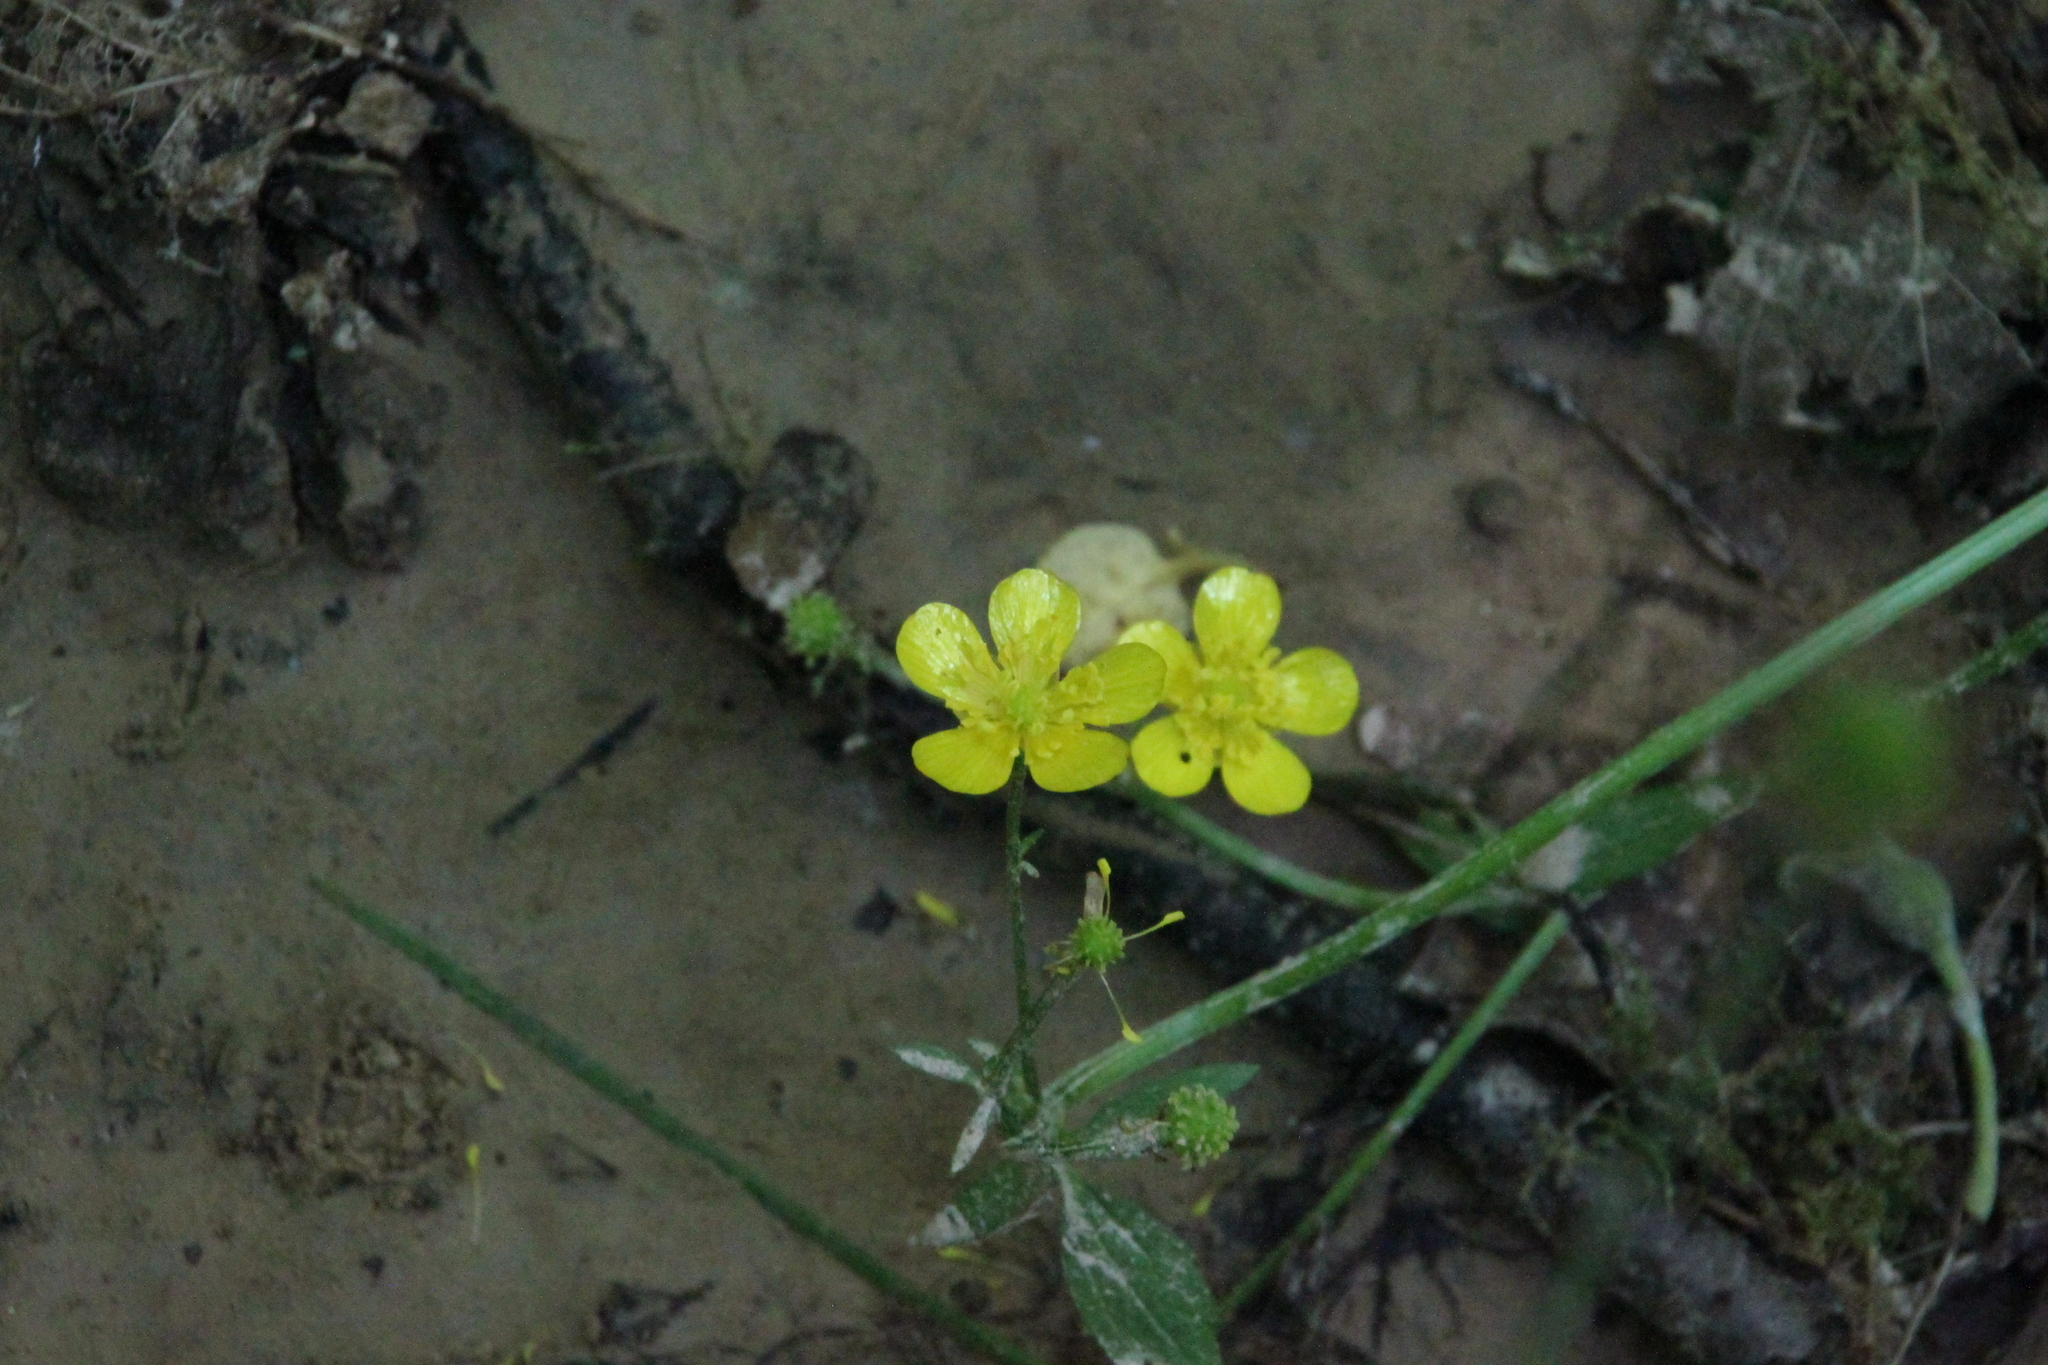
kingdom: Plantae
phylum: Tracheophyta
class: Magnoliopsida
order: Ranunculales
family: Ranunculaceae
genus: Ranunculus
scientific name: Ranunculus repens
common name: Creeping buttercup
